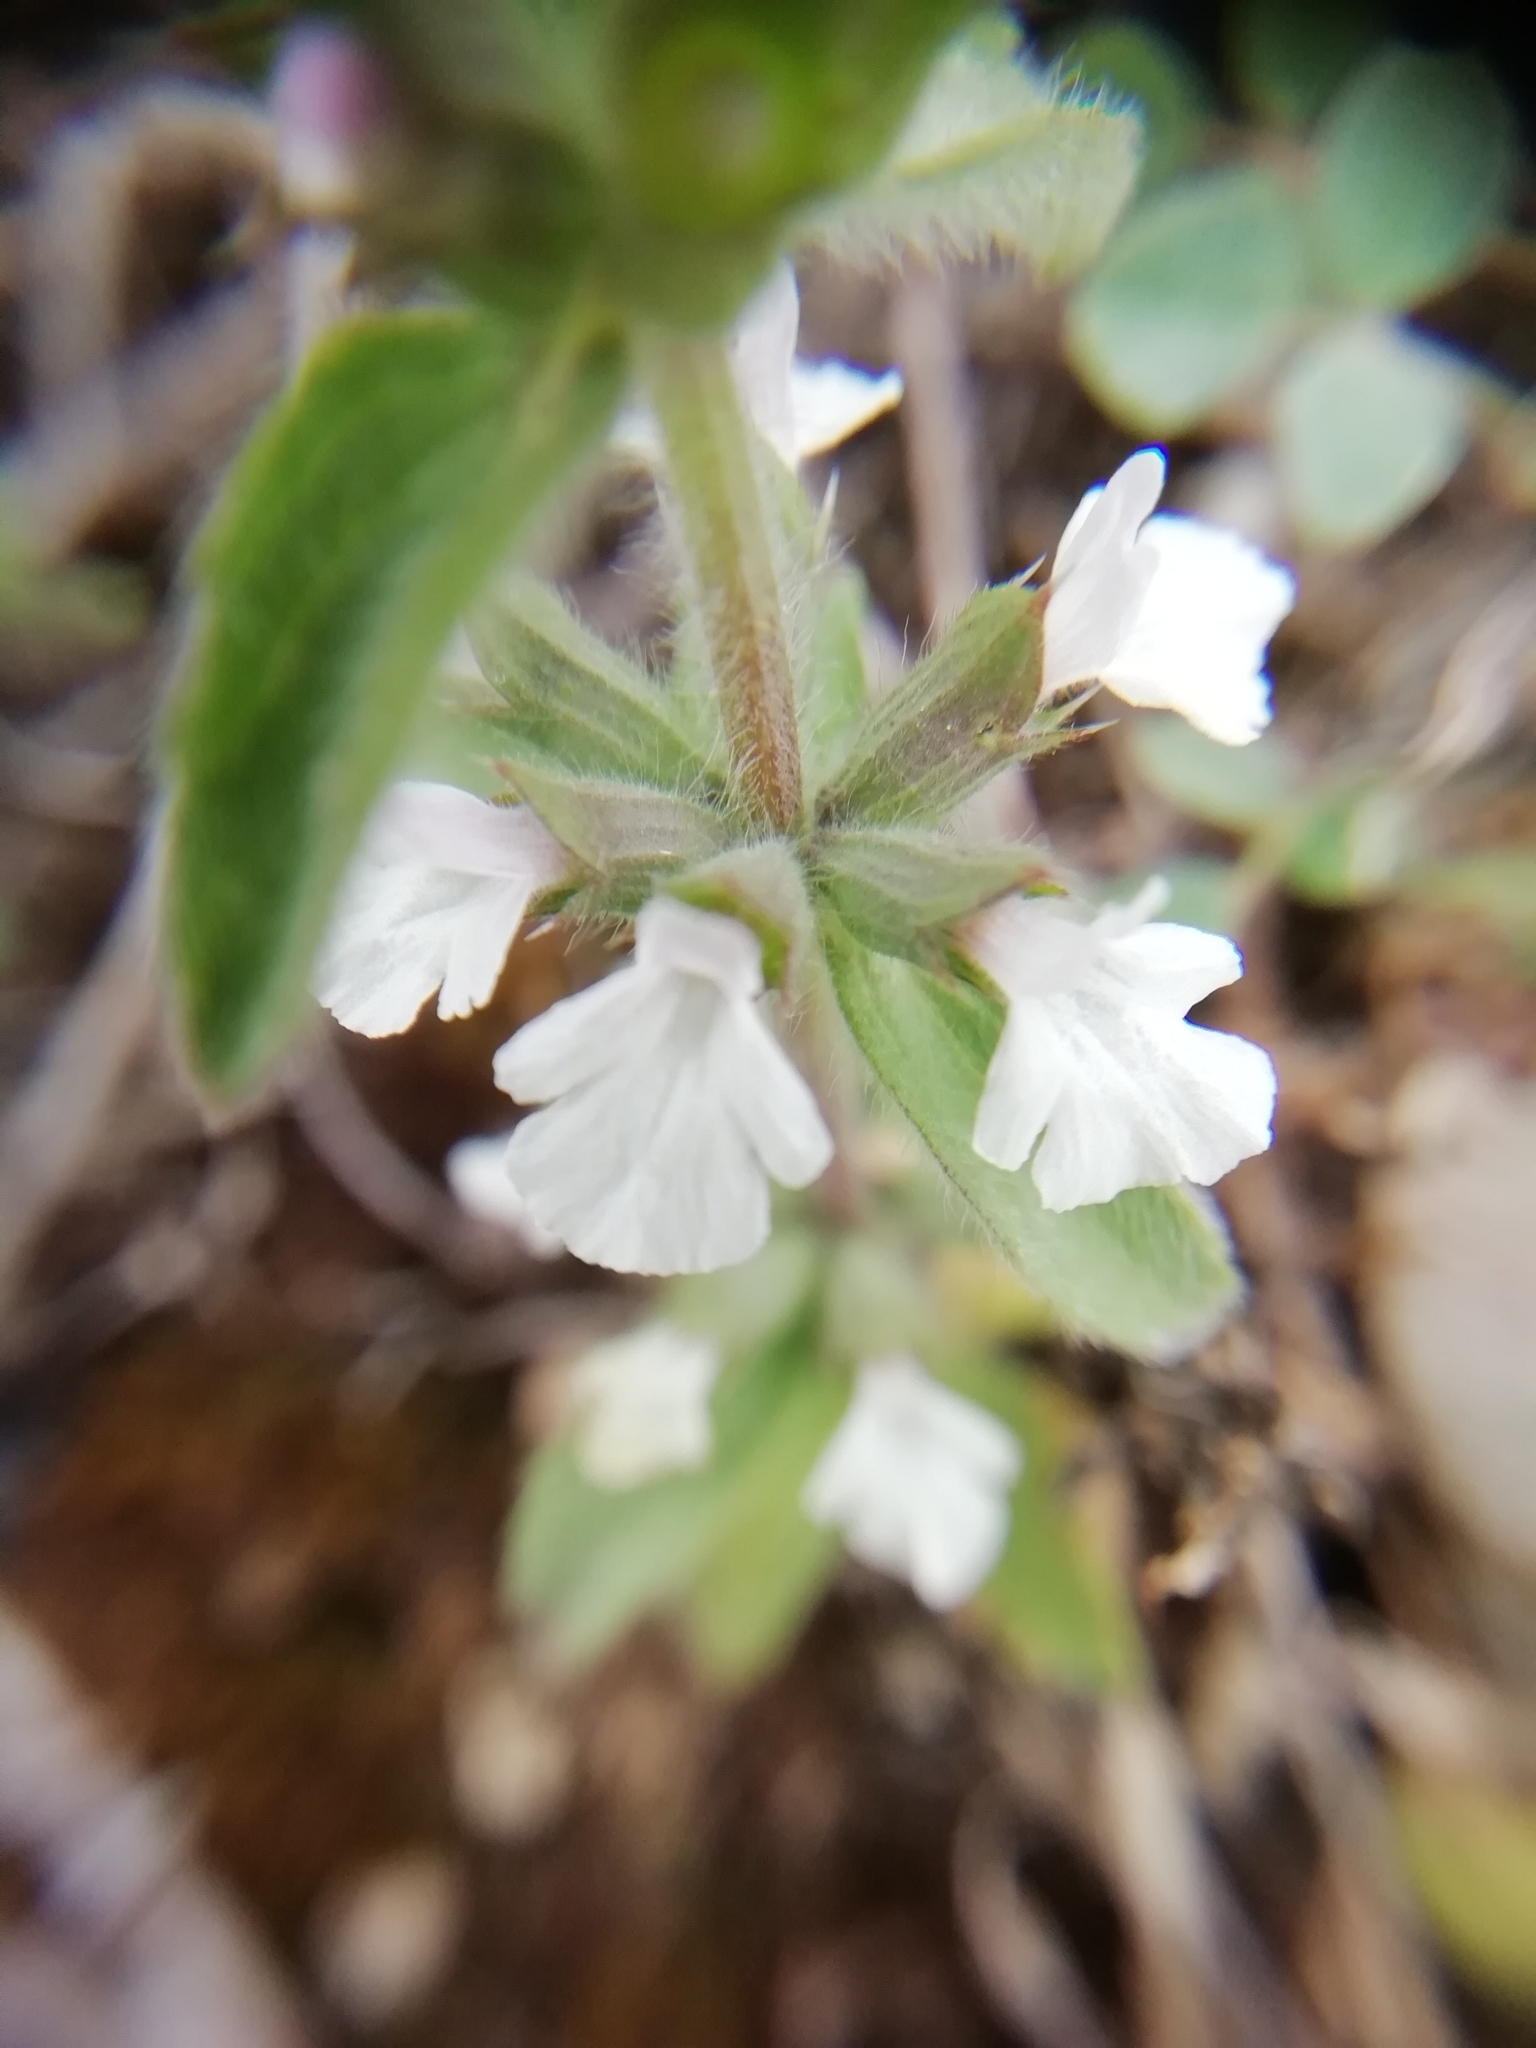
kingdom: Plantae
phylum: Tracheophyta
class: Magnoliopsida
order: Lamiales
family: Lamiaceae
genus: Sideritis
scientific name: Sideritis romana
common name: Simplebeak ironwort
